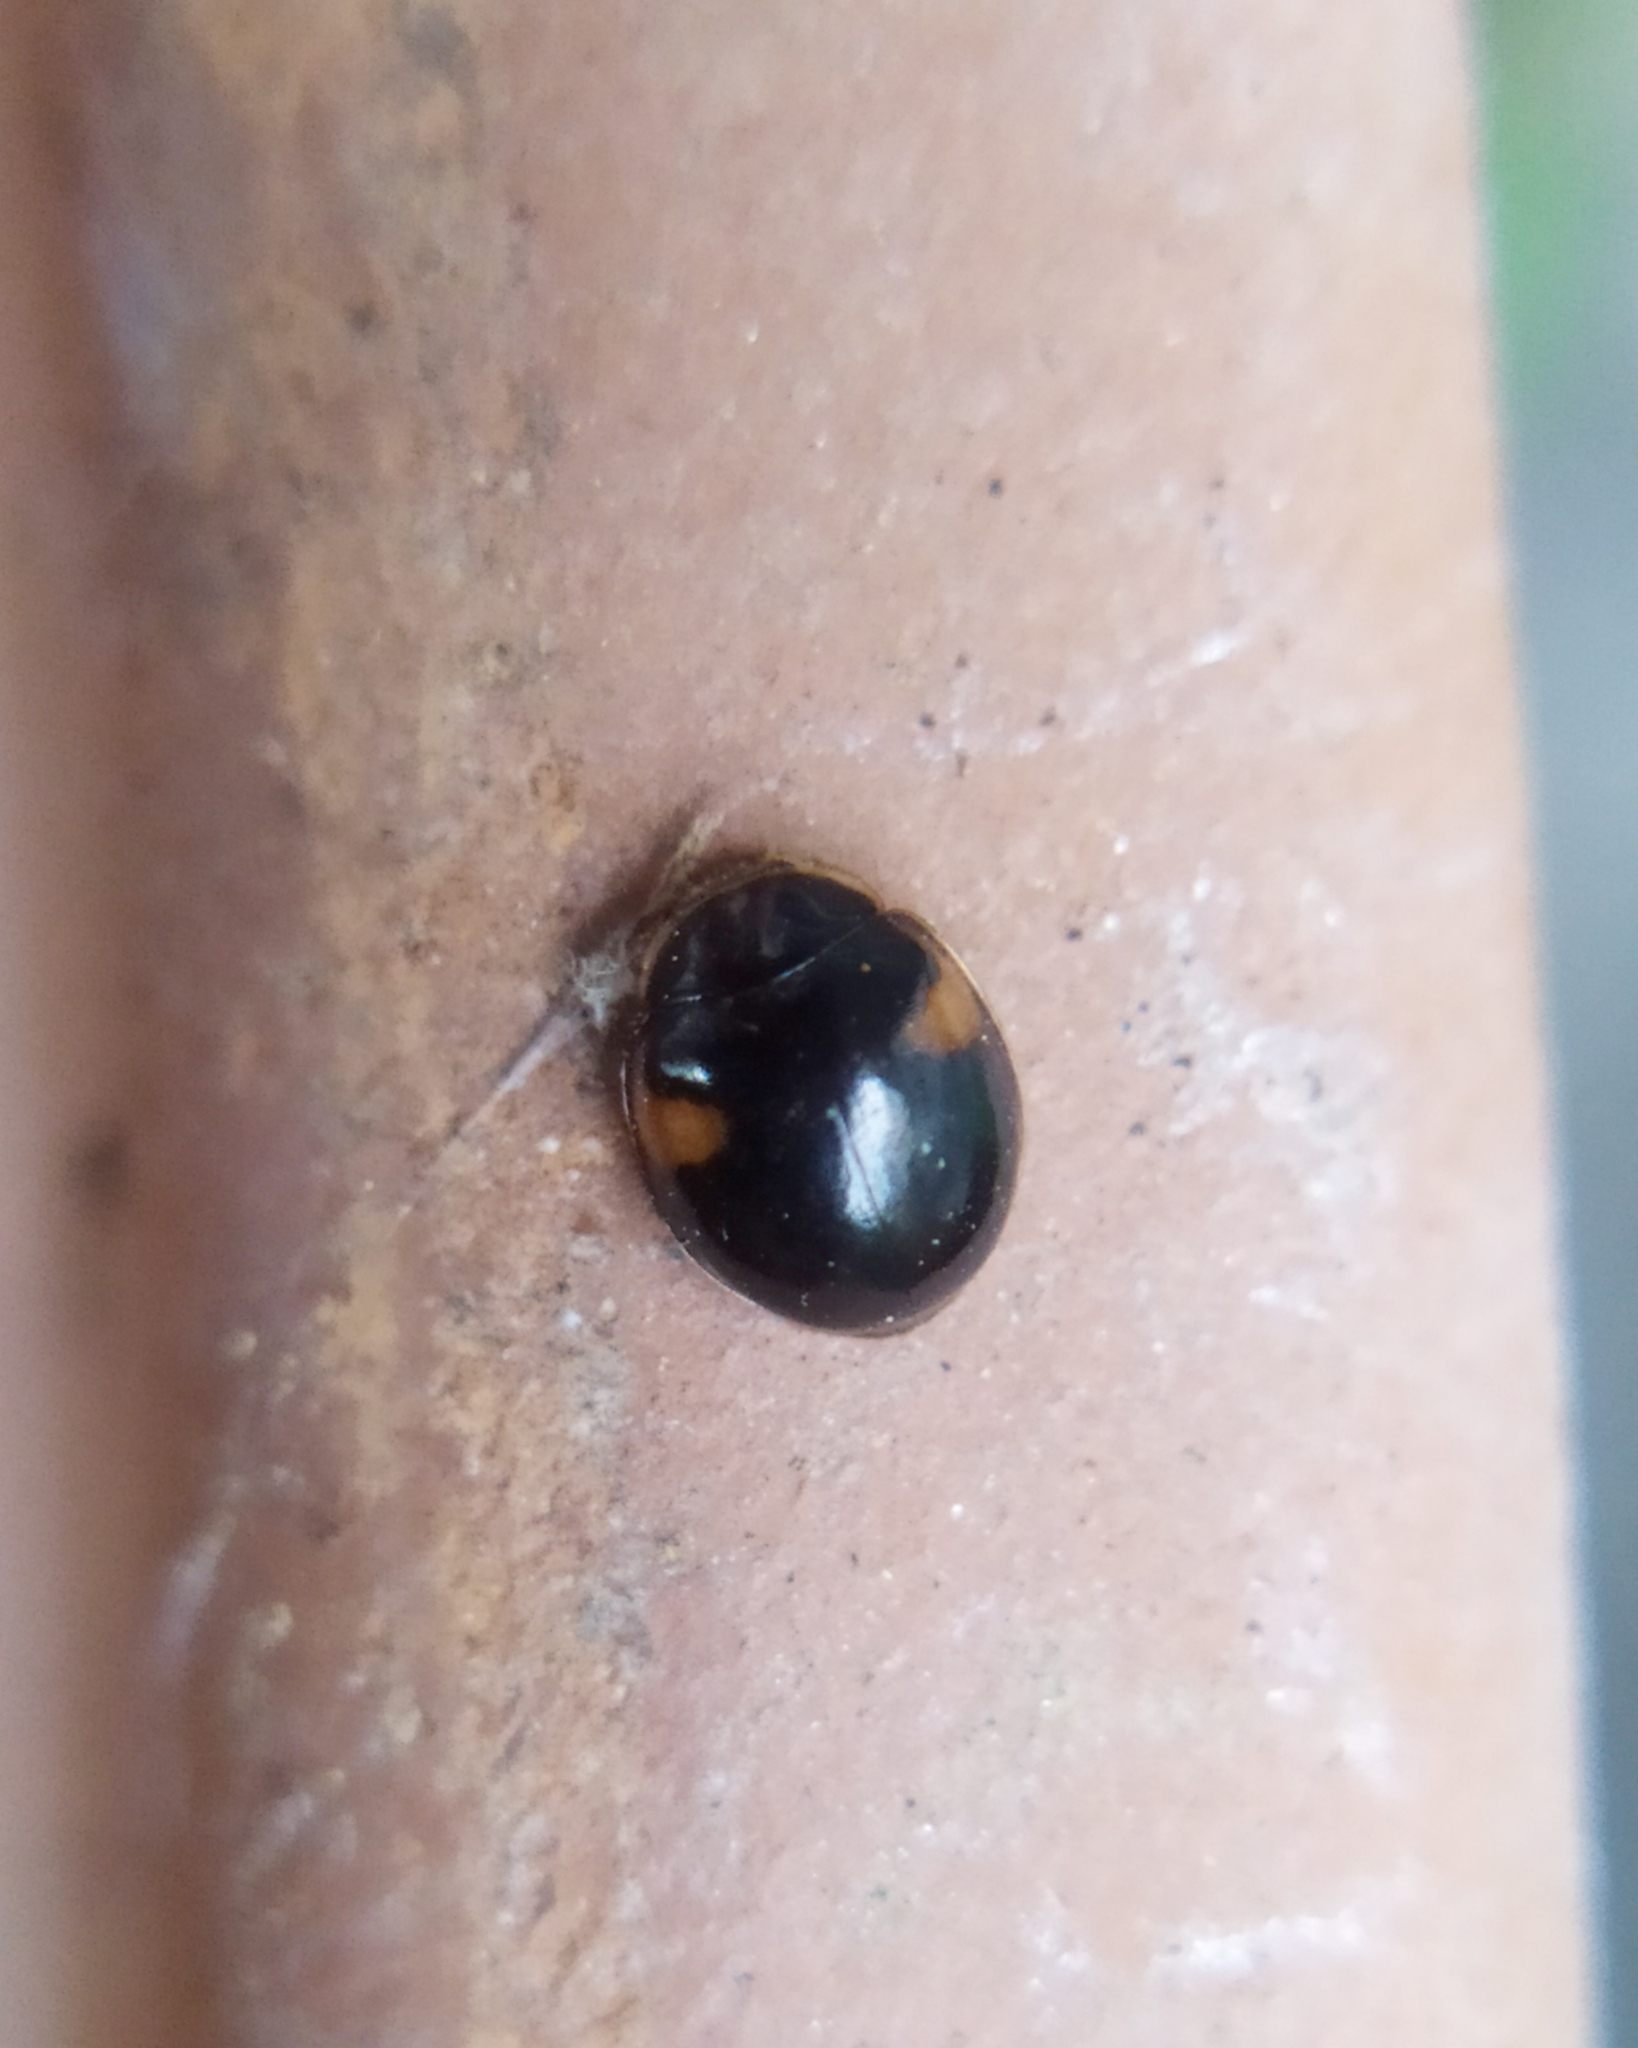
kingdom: Animalia
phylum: Arthropoda
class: Insecta
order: Coleoptera
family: Coccinellidae
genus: Adalia
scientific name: Adalia decempunctata
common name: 10-spot ladybird
